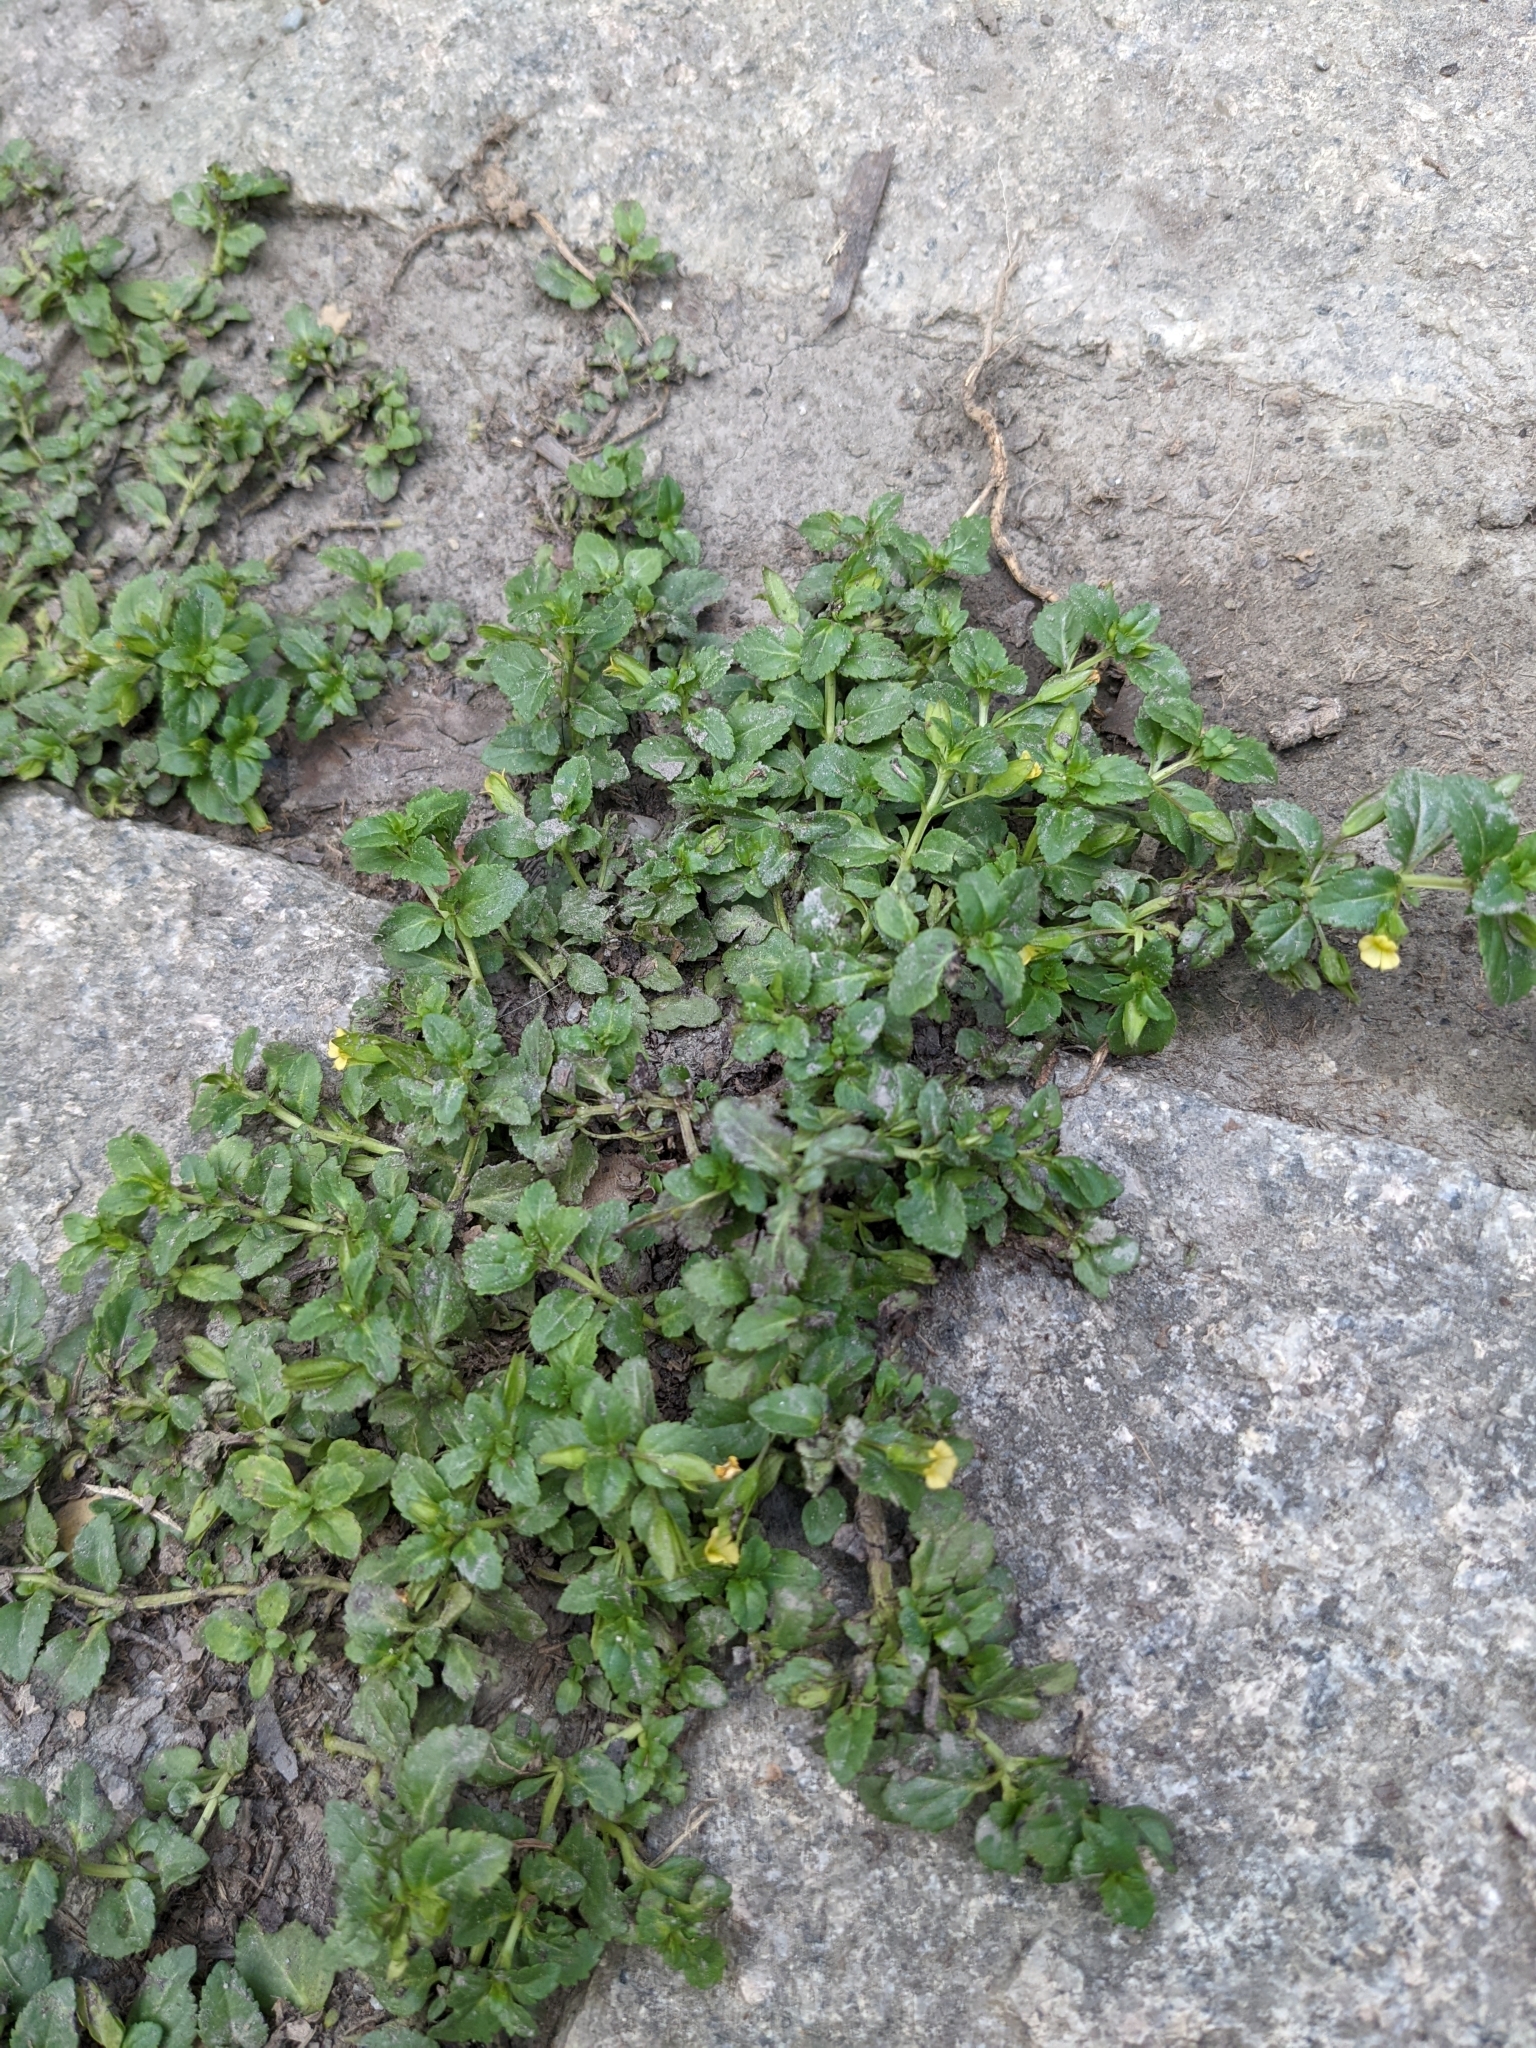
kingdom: Plantae
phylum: Tracheophyta
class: Magnoliopsida
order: Lamiales
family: Plantaginaceae
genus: Mecardonia
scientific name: Mecardonia procumbens
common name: Baby jump-up
